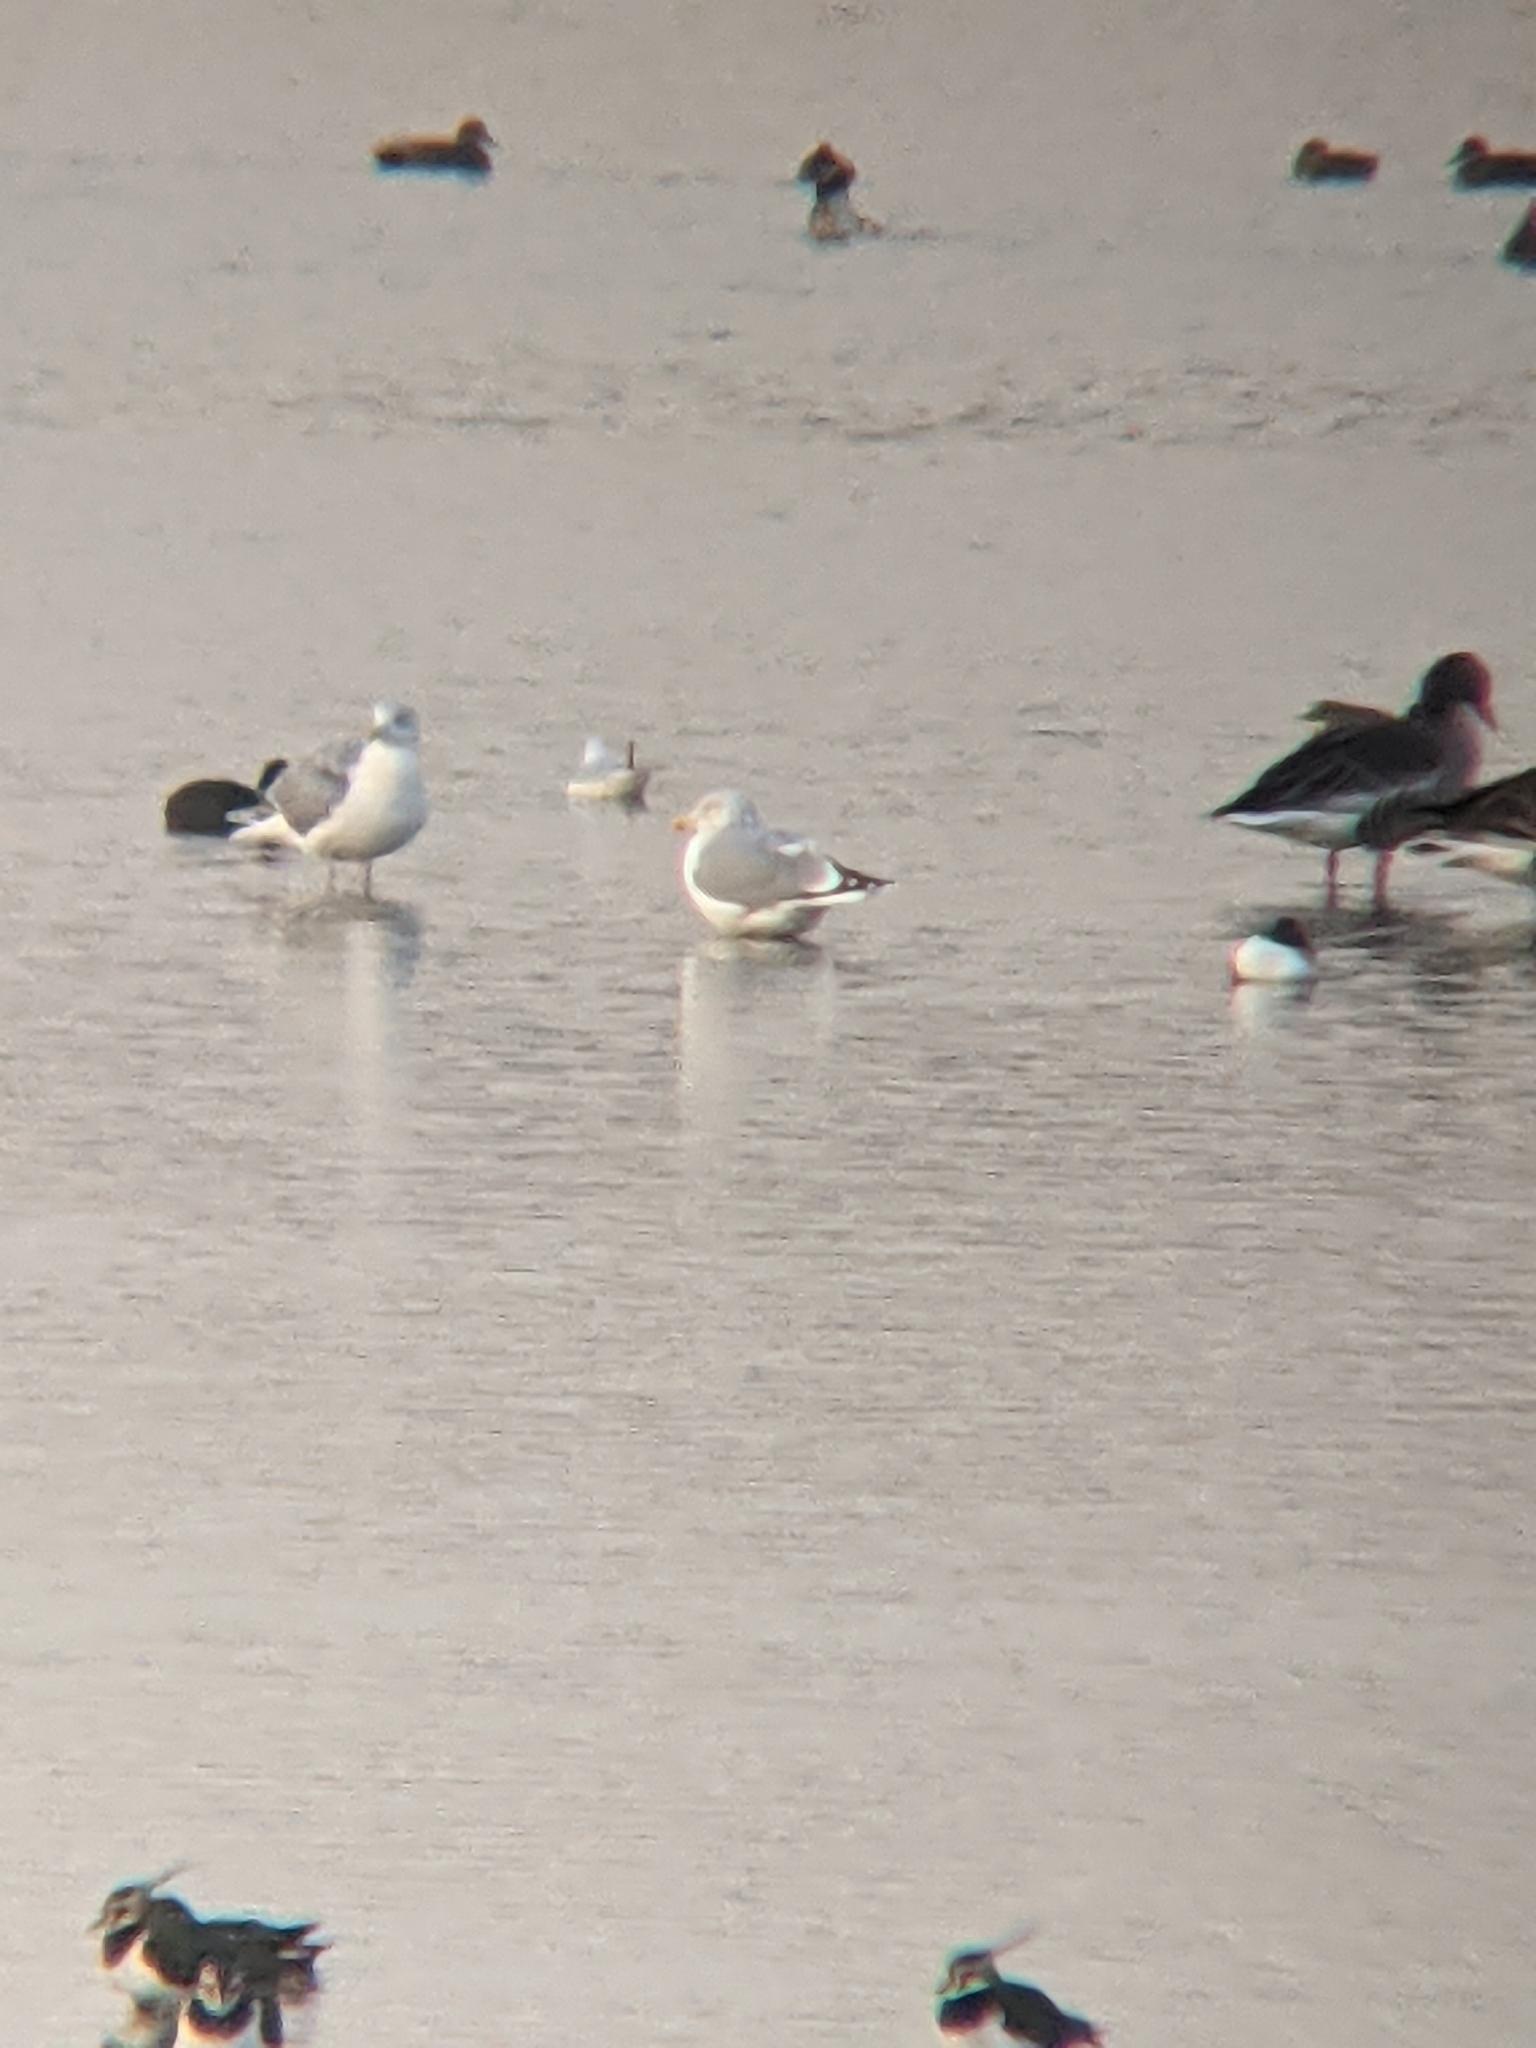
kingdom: Animalia
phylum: Chordata
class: Aves
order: Charadriiformes
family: Laridae
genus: Chroicocephalus
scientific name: Chroicocephalus ridibundus
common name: Black-headed gull
